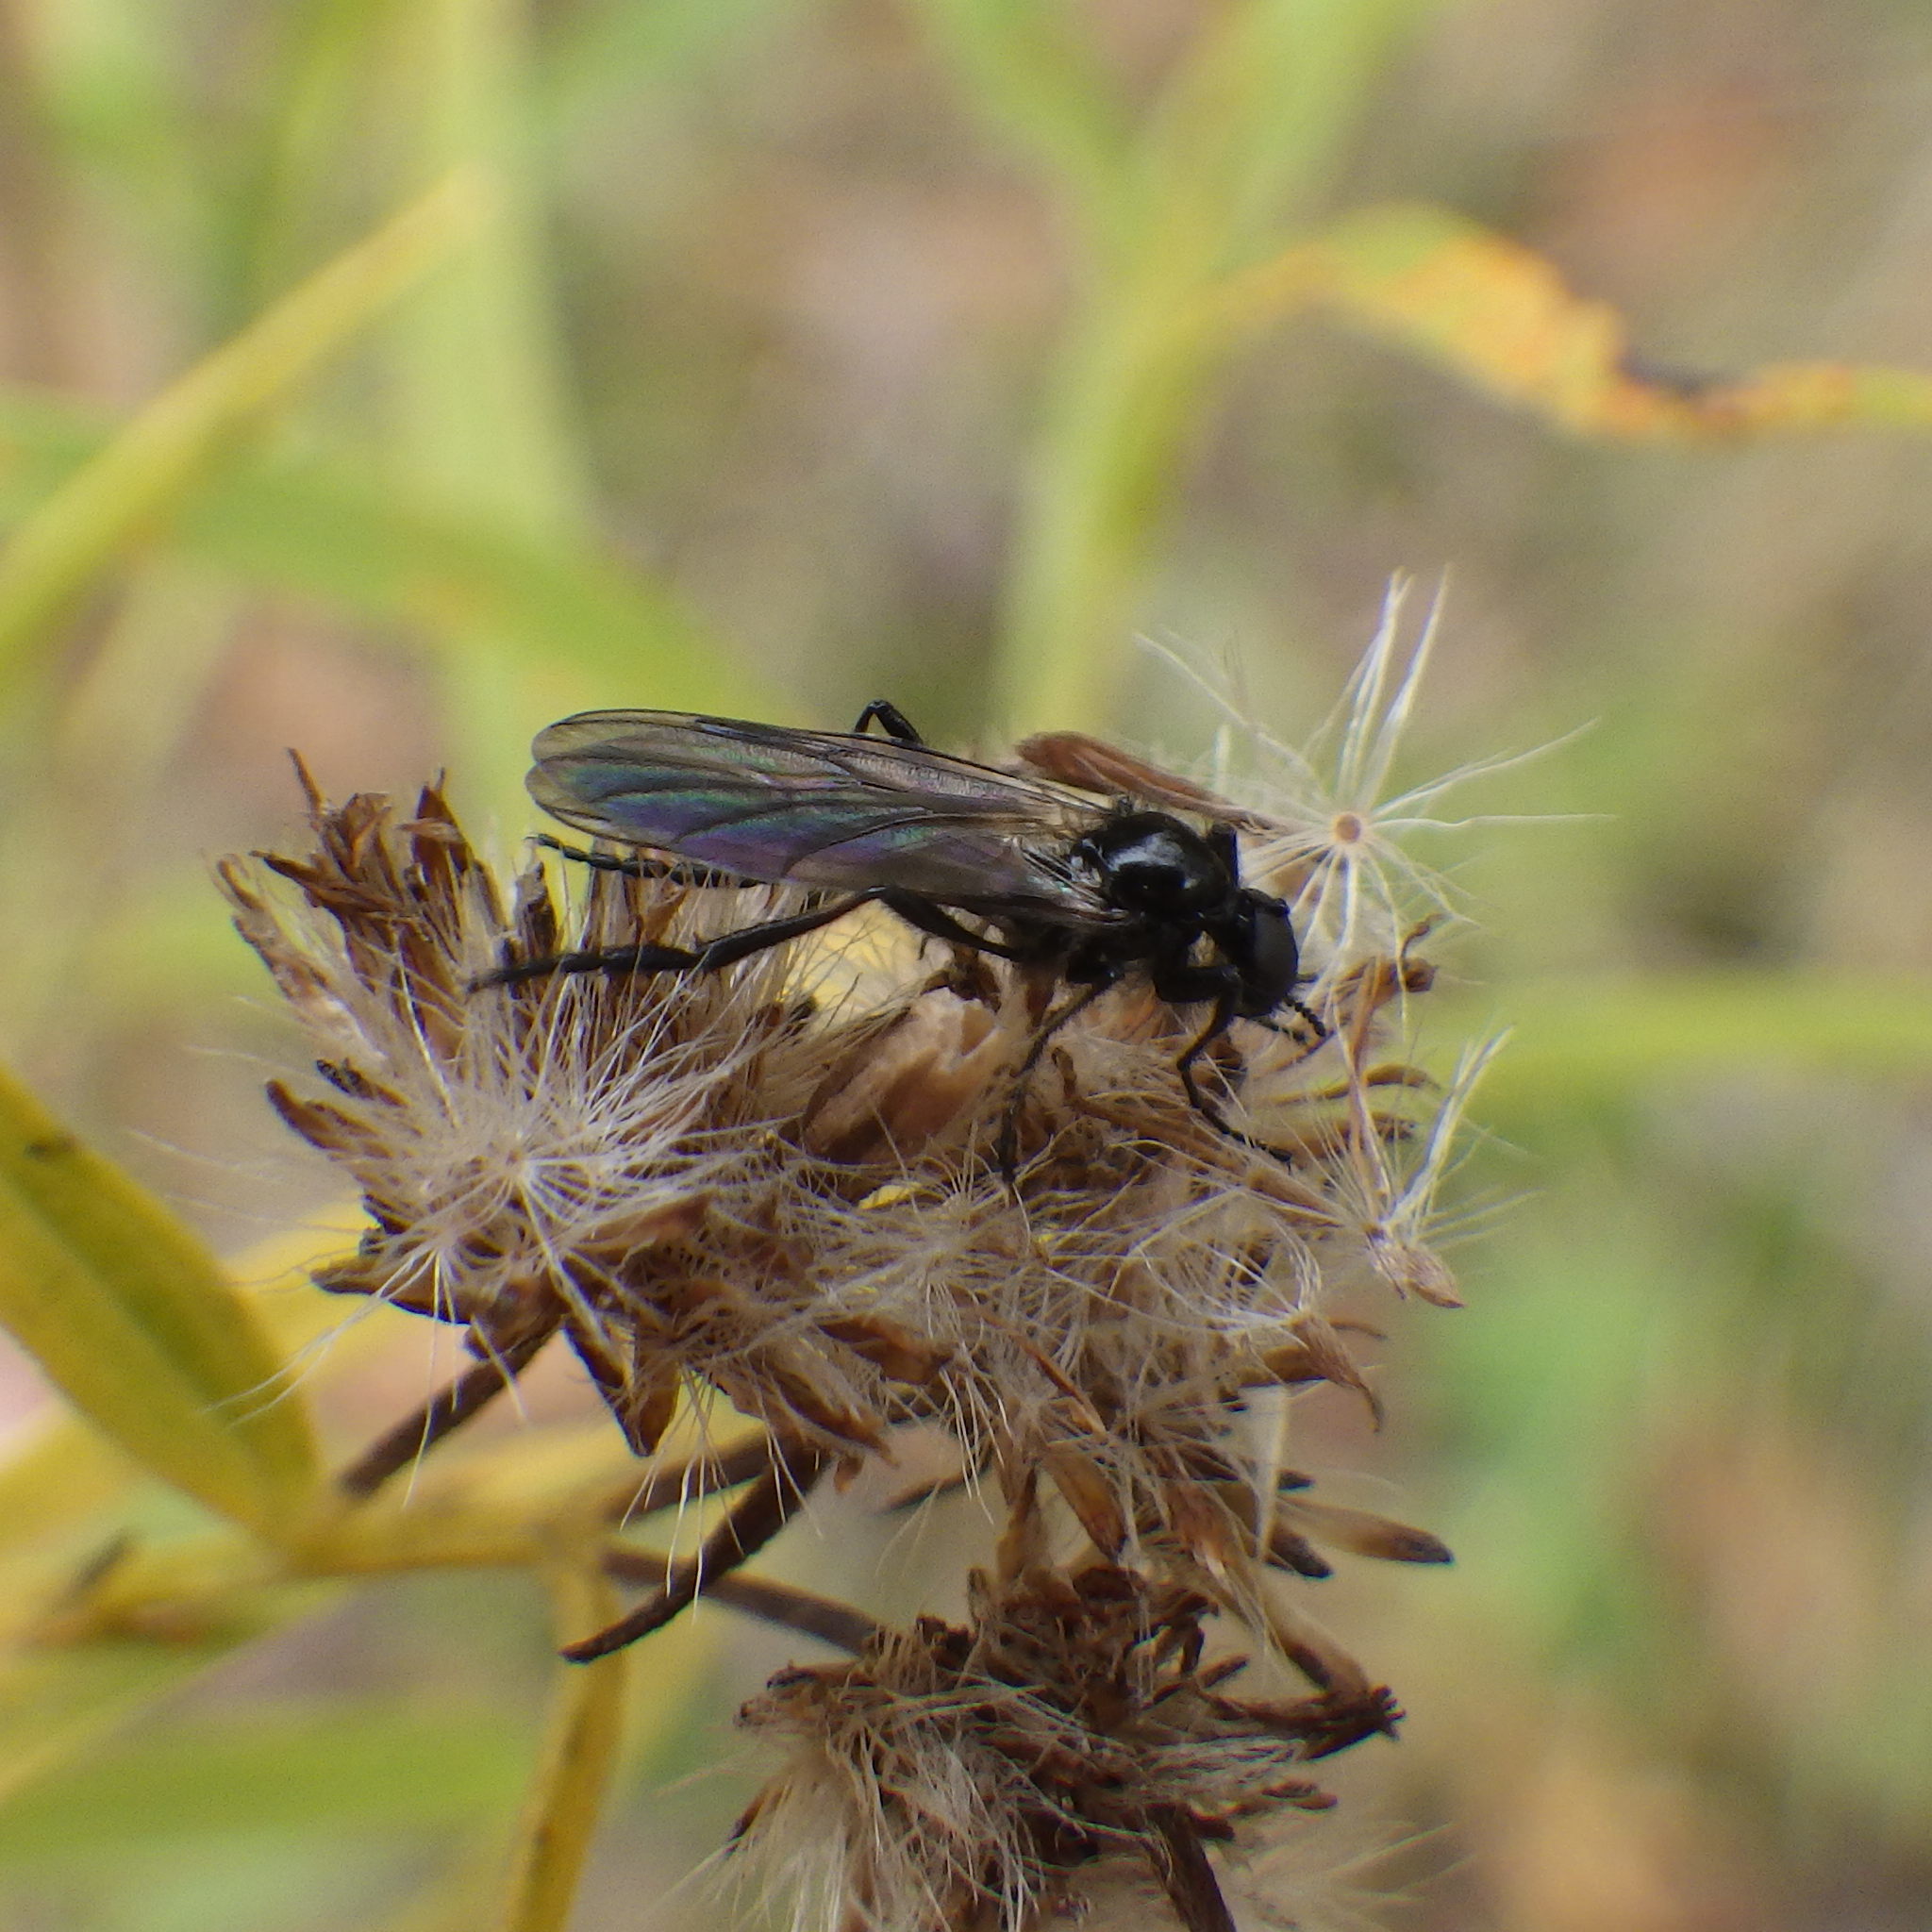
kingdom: Animalia
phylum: Arthropoda
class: Insecta
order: Diptera
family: Bibionidae
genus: Bibio
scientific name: Bibio slossonae
